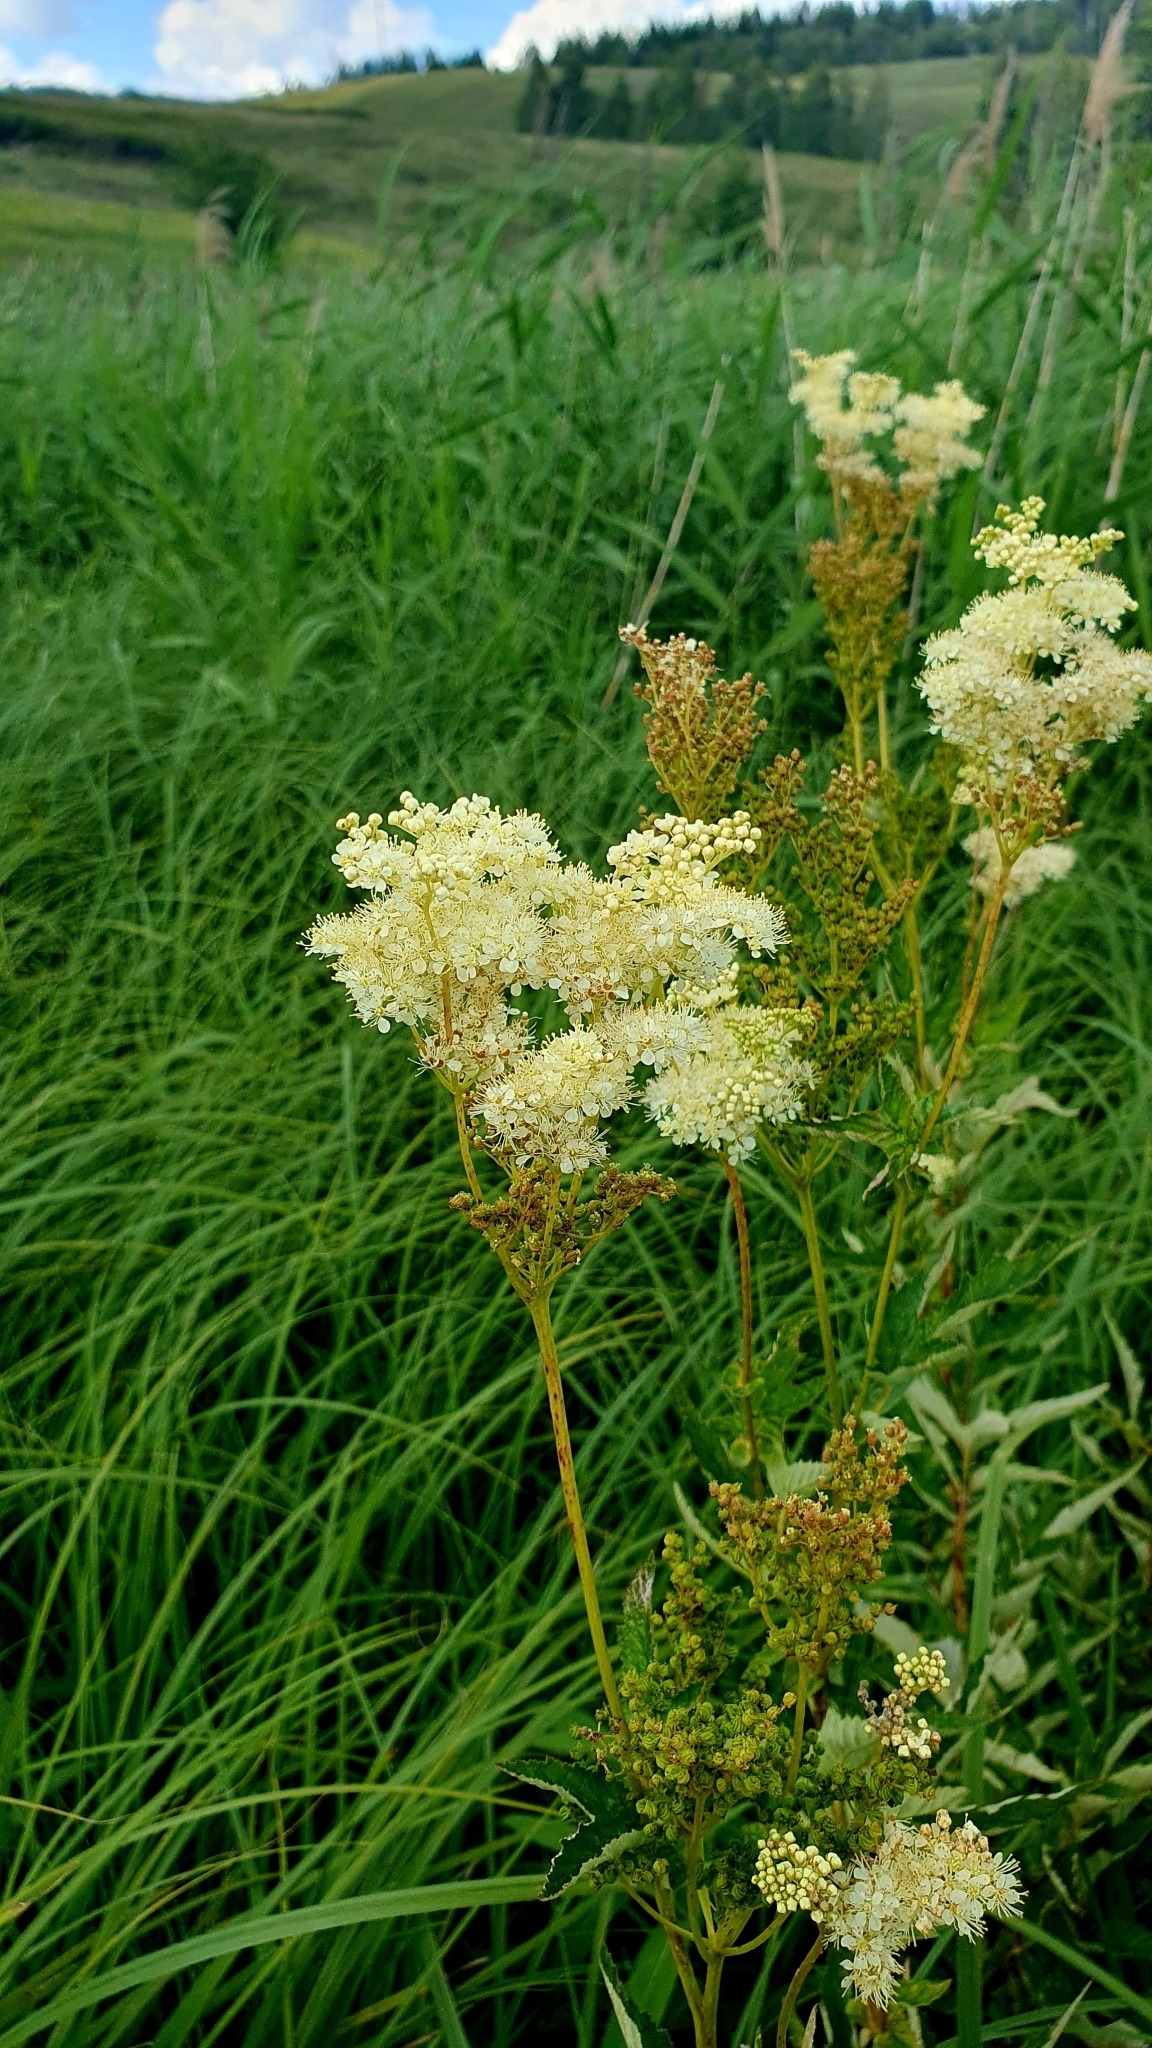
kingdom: Plantae
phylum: Tracheophyta
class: Magnoliopsida
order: Rosales
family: Rosaceae
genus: Filipendula
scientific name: Filipendula ulmaria
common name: Meadowsweet
